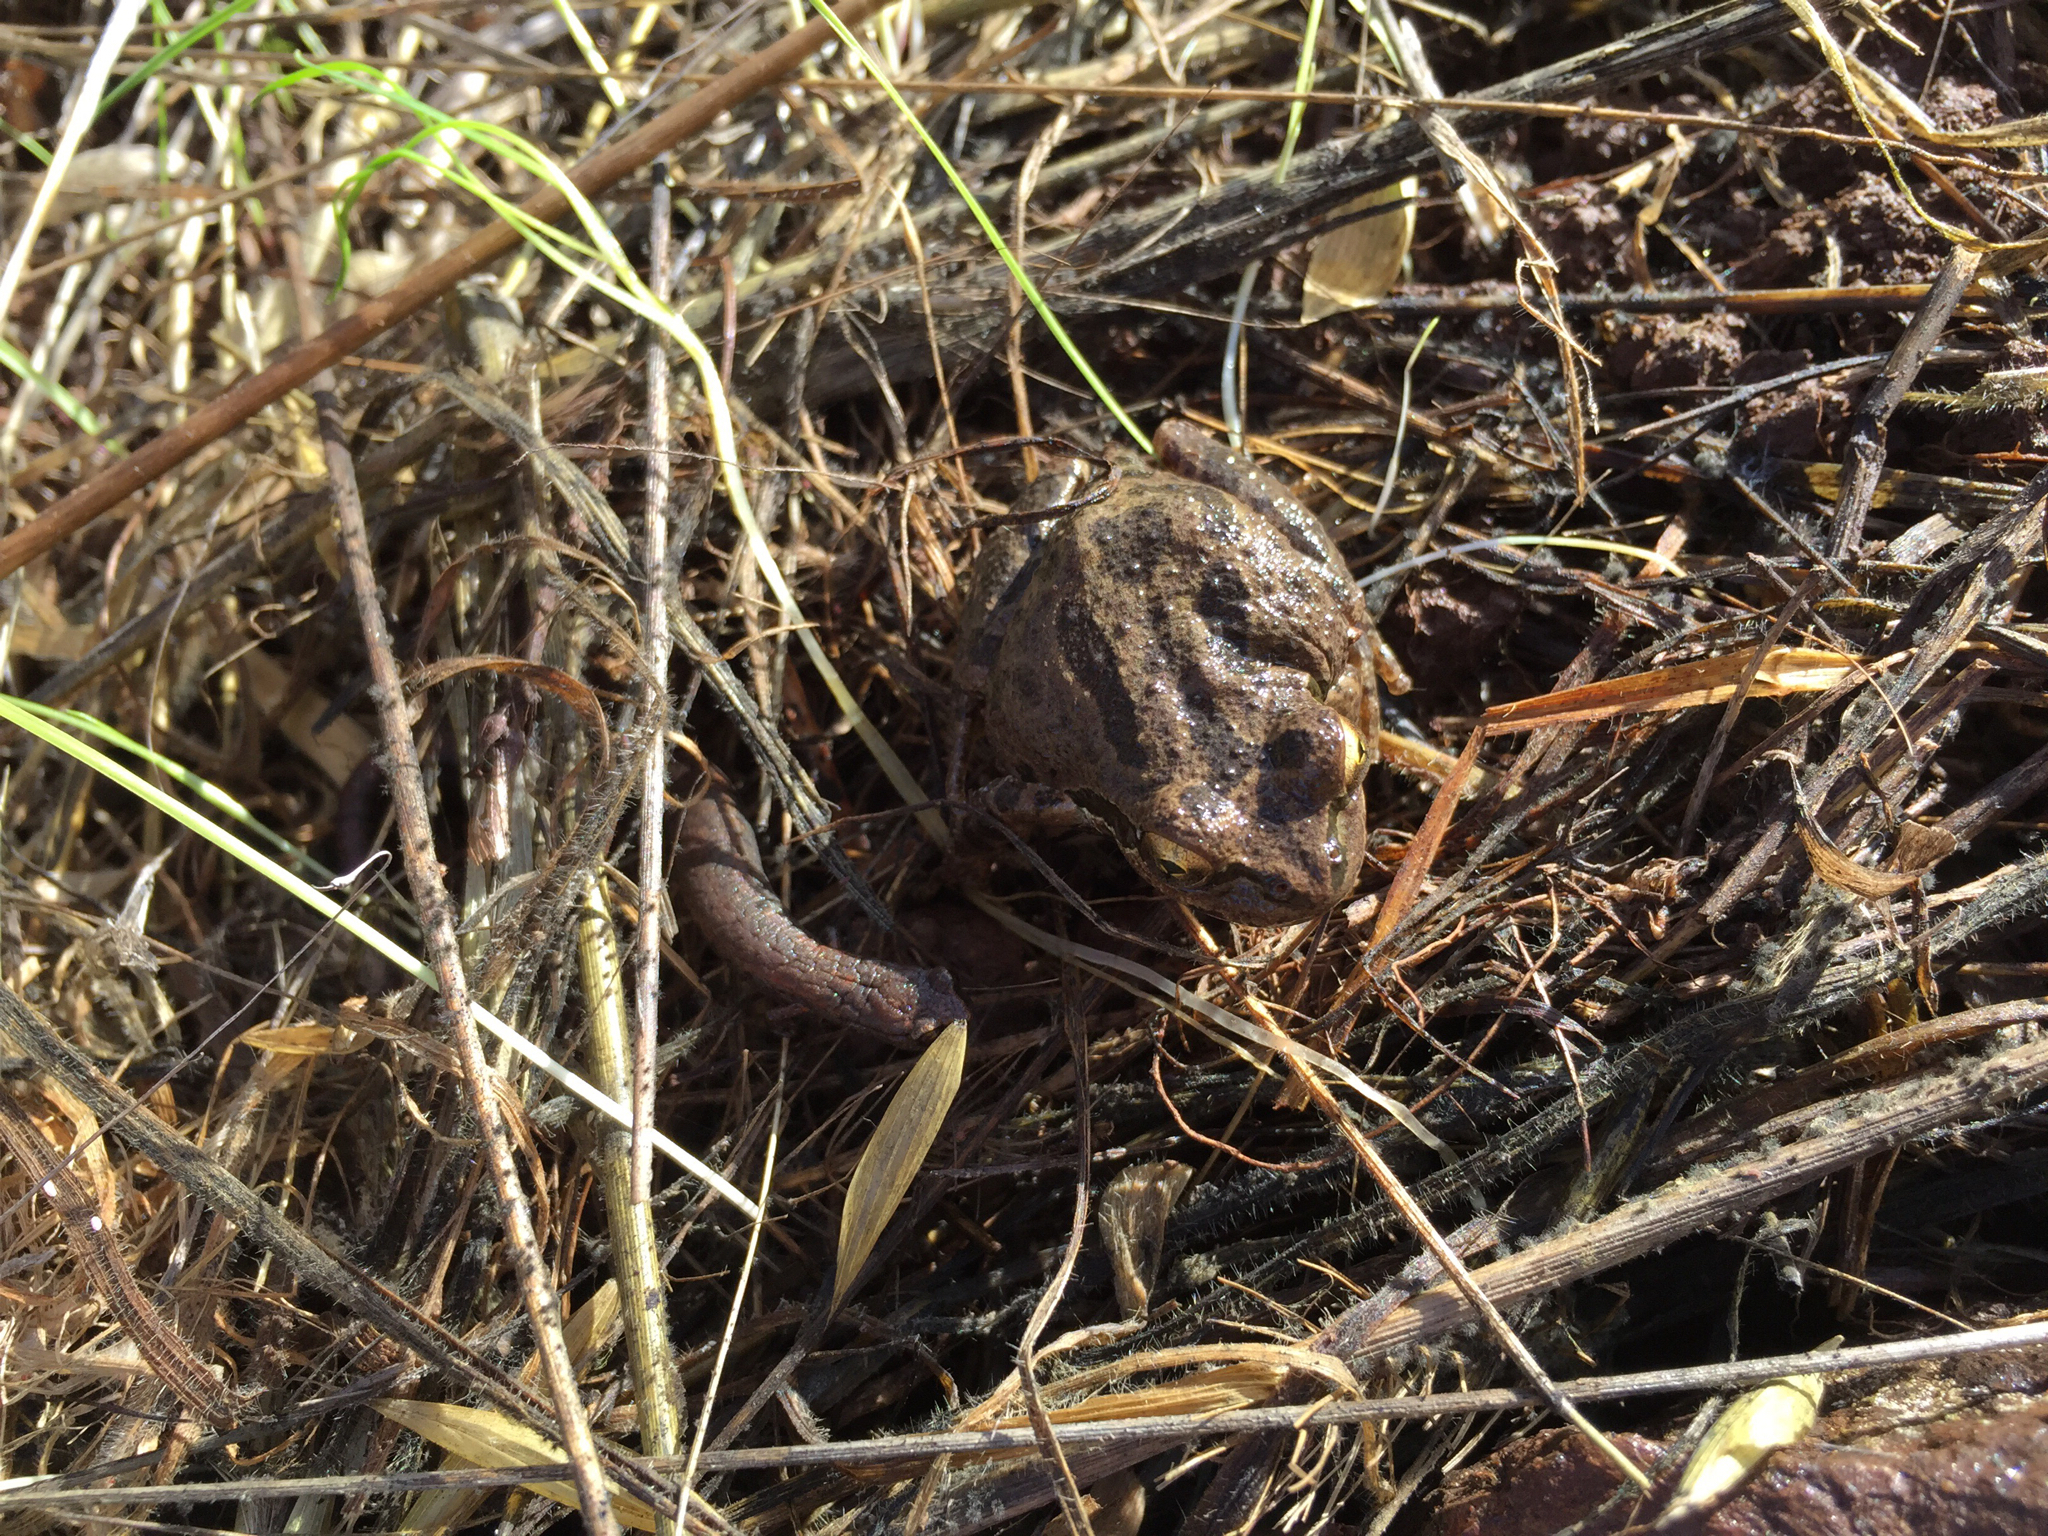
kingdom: Animalia
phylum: Chordata
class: Amphibia
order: Anura
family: Hylidae
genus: Pseudacris
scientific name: Pseudacris regilla
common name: Pacific chorus frog
